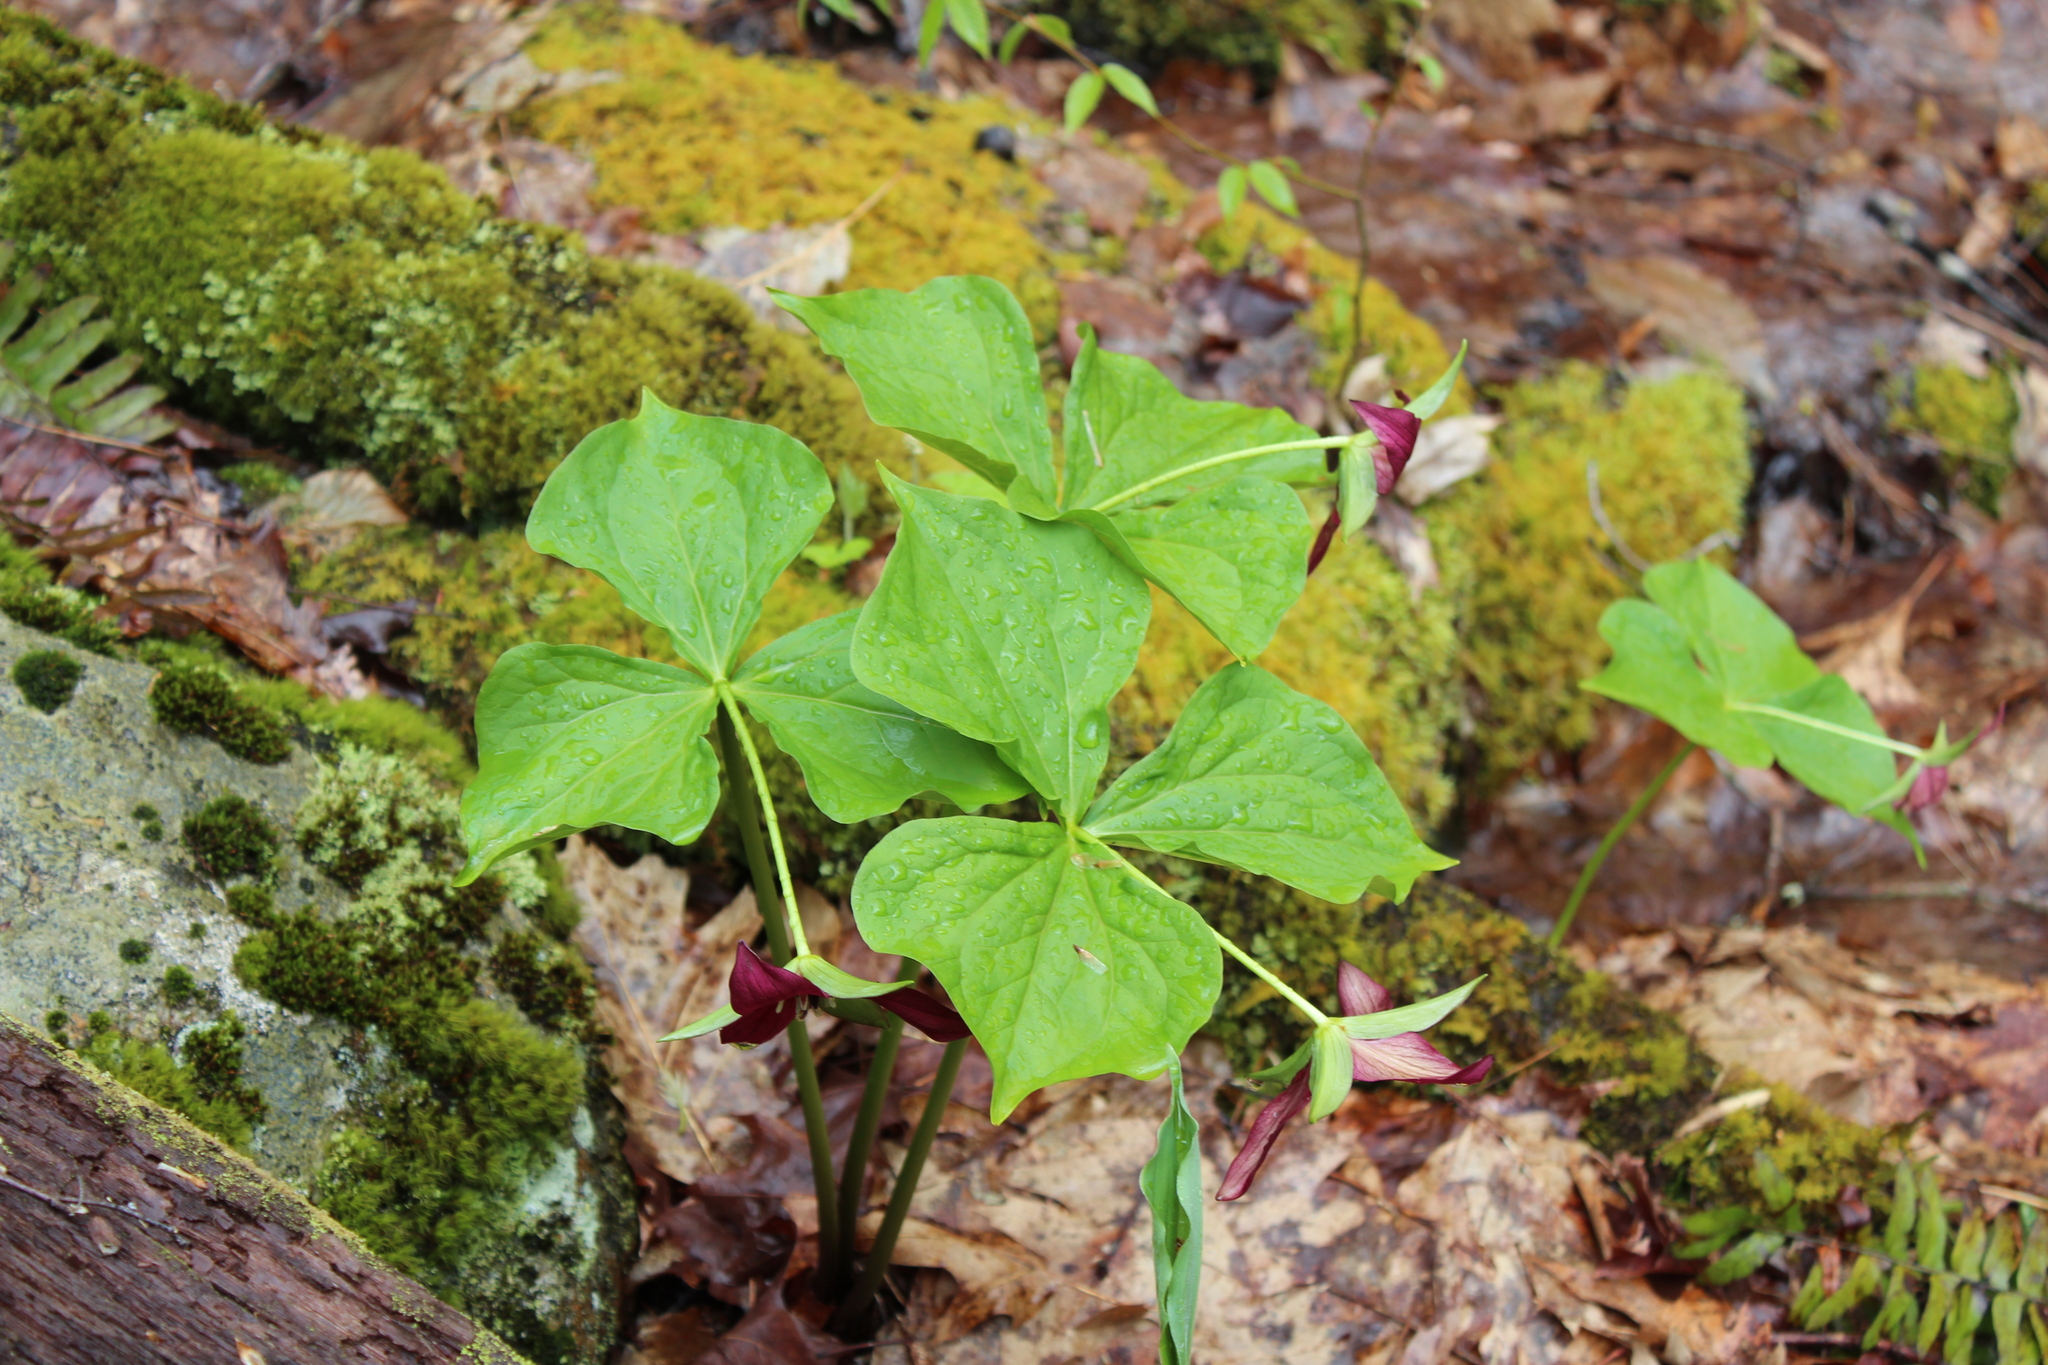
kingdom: Plantae
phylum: Tracheophyta
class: Liliopsida
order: Liliales
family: Melanthiaceae
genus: Trillium
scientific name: Trillium erectum
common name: Purple trillium
